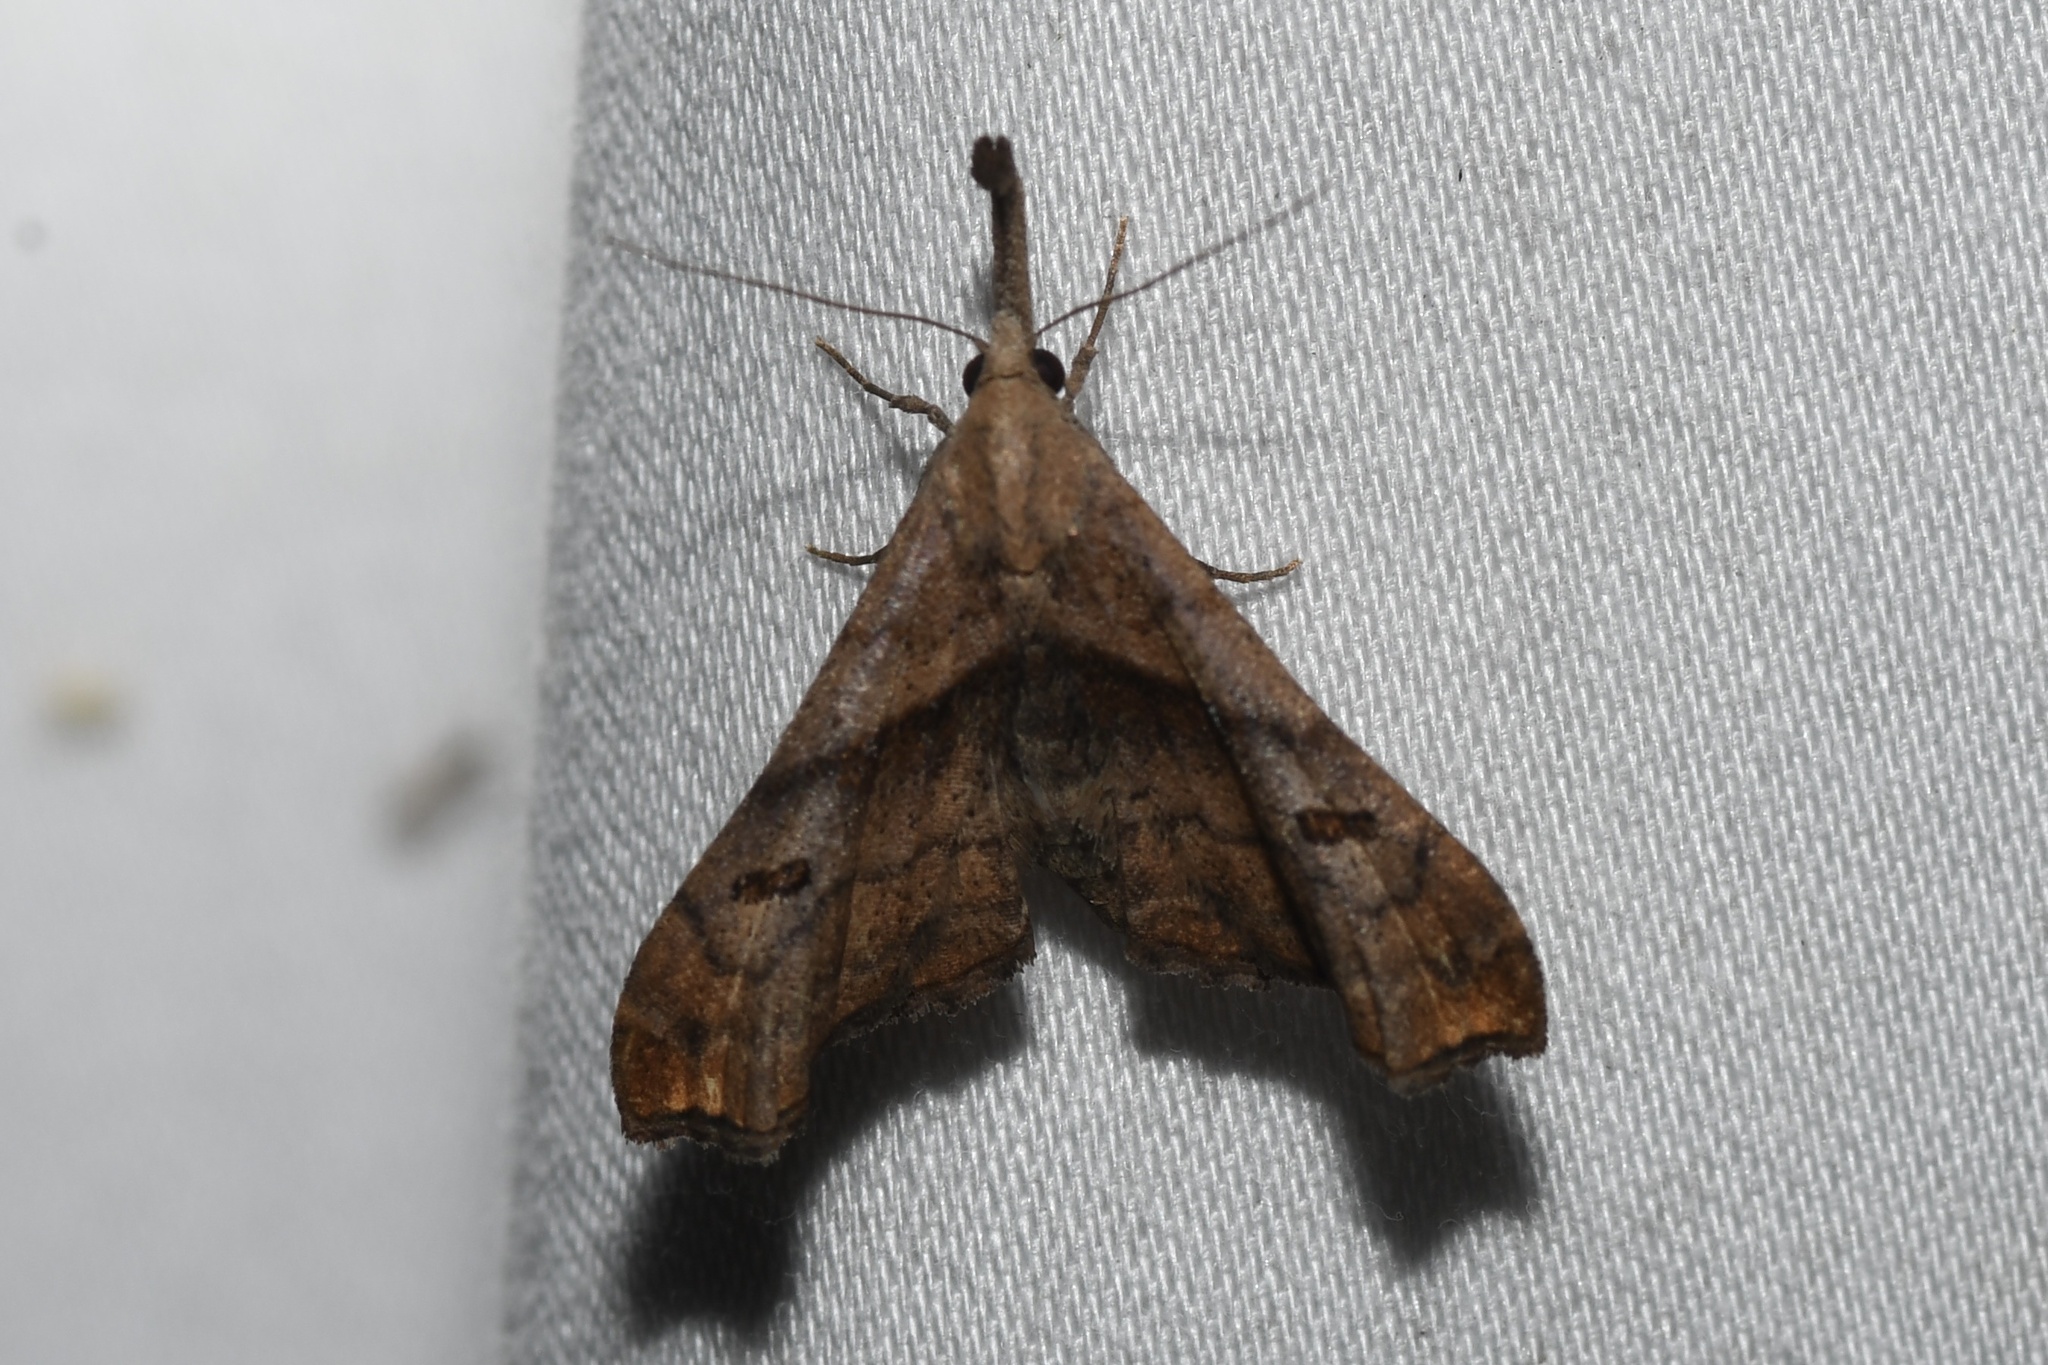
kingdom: Animalia
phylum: Arthropoda
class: Insecta
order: Lepidoptera
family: Erebidae
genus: Palthis
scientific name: Palthis angulalis
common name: Dark-spotted palthis moth
